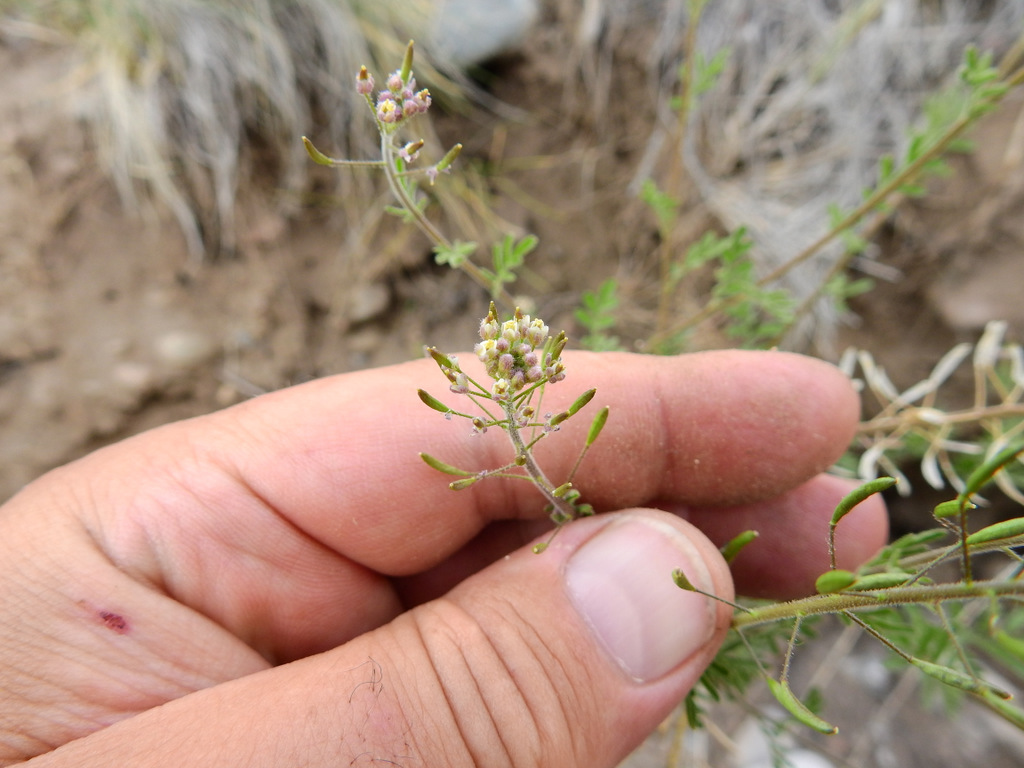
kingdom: Plantae
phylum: Tracheophyta
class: Magnoliopsida
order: Brassicales
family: Brassicaceae
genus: Descurainia
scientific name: Descurainia erodiifolia
